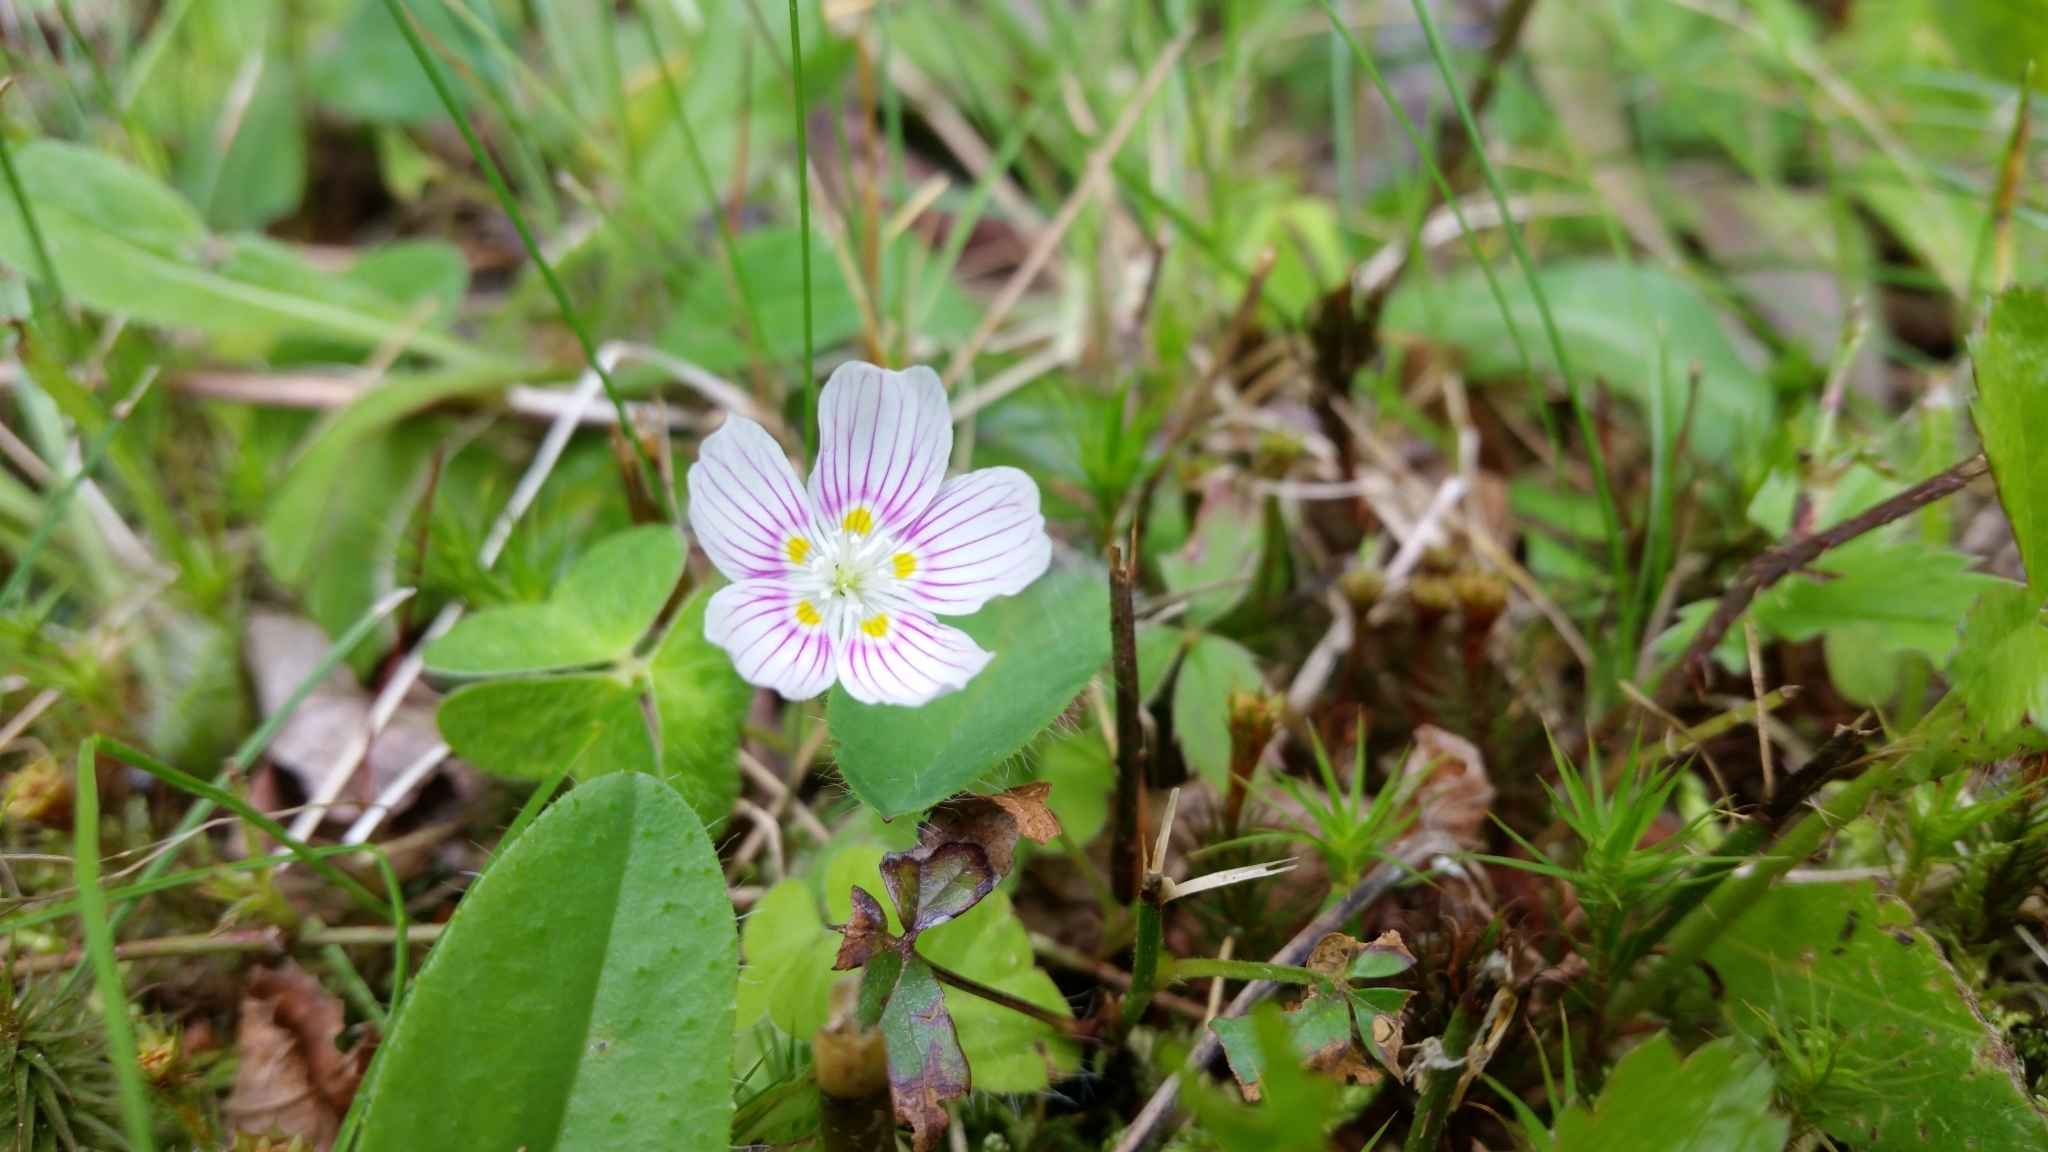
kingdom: Plantae
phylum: Tracheophyta
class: Magnoliopsida
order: Oxalidales
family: Oxalidaceae
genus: Oxalis
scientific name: Oxalis montana
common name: American wood-sorrel
